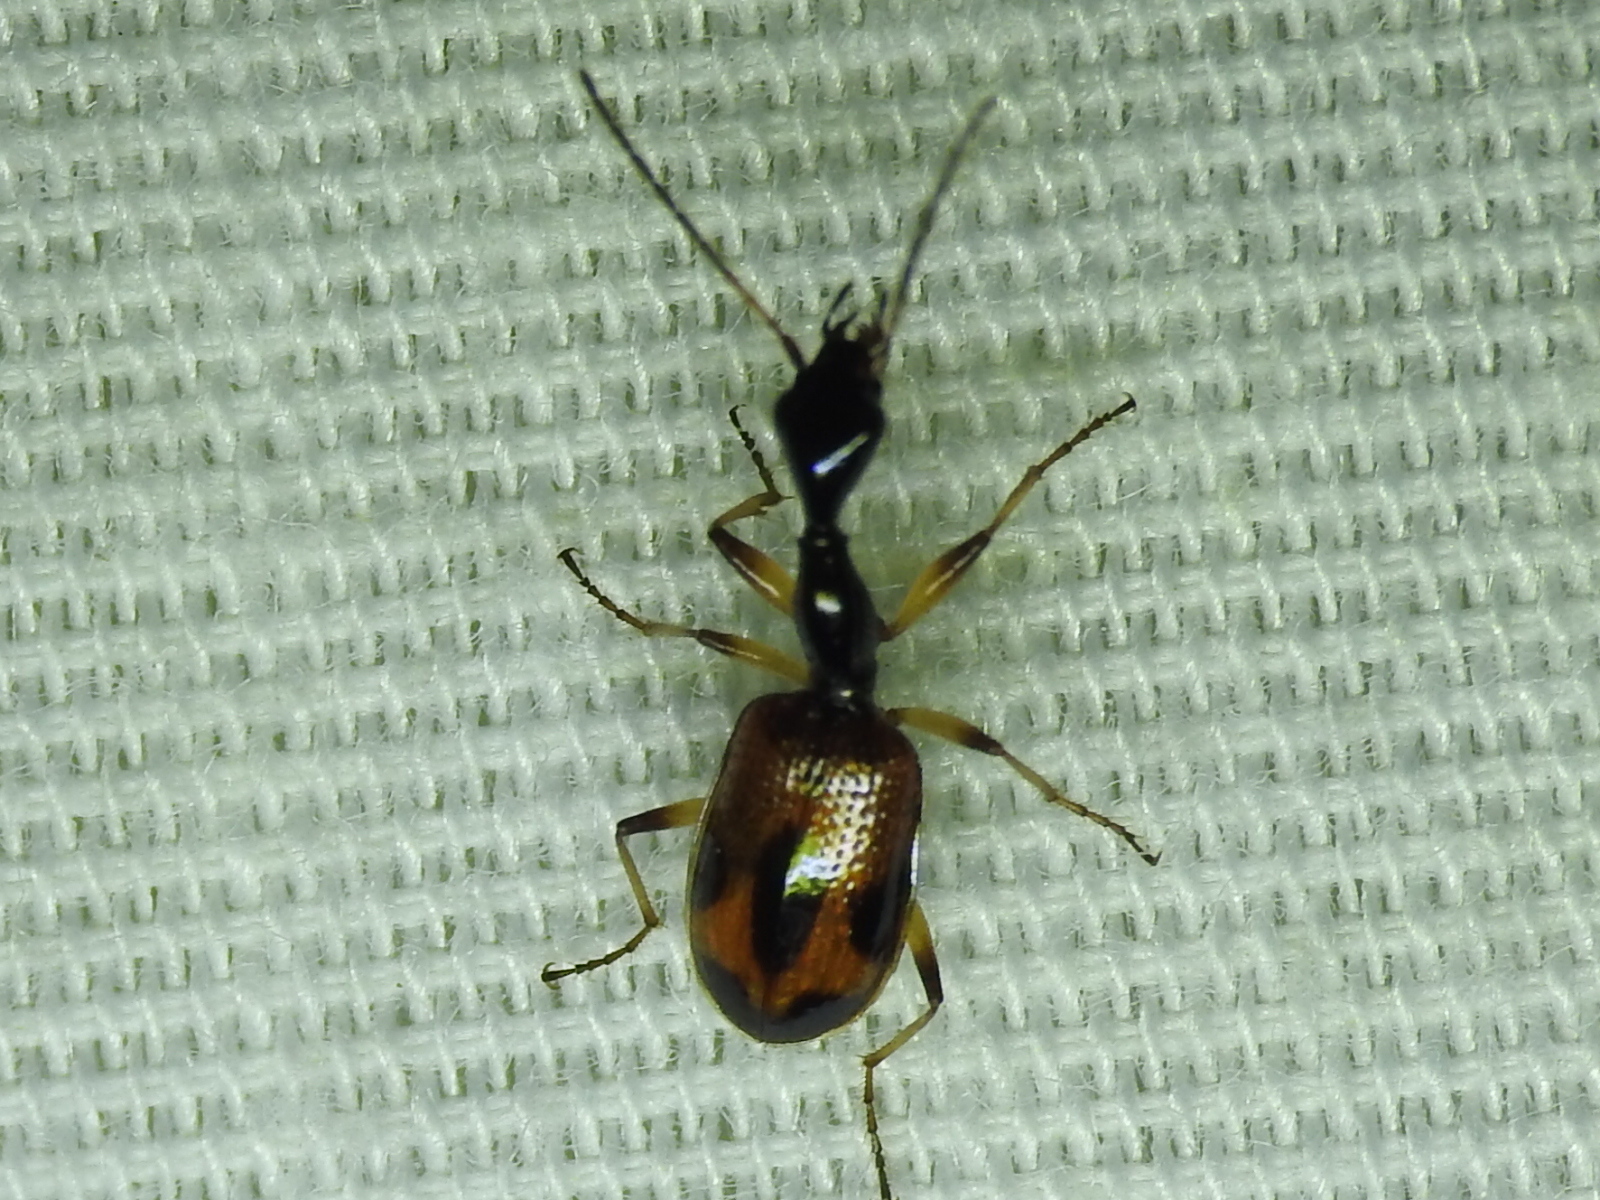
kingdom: Animalia
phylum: Arthropoda
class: Insecta
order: Coleoptera
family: Carabidae
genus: Colliuris
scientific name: Colliuris pensylvanica
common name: Long-necked ground beetle
